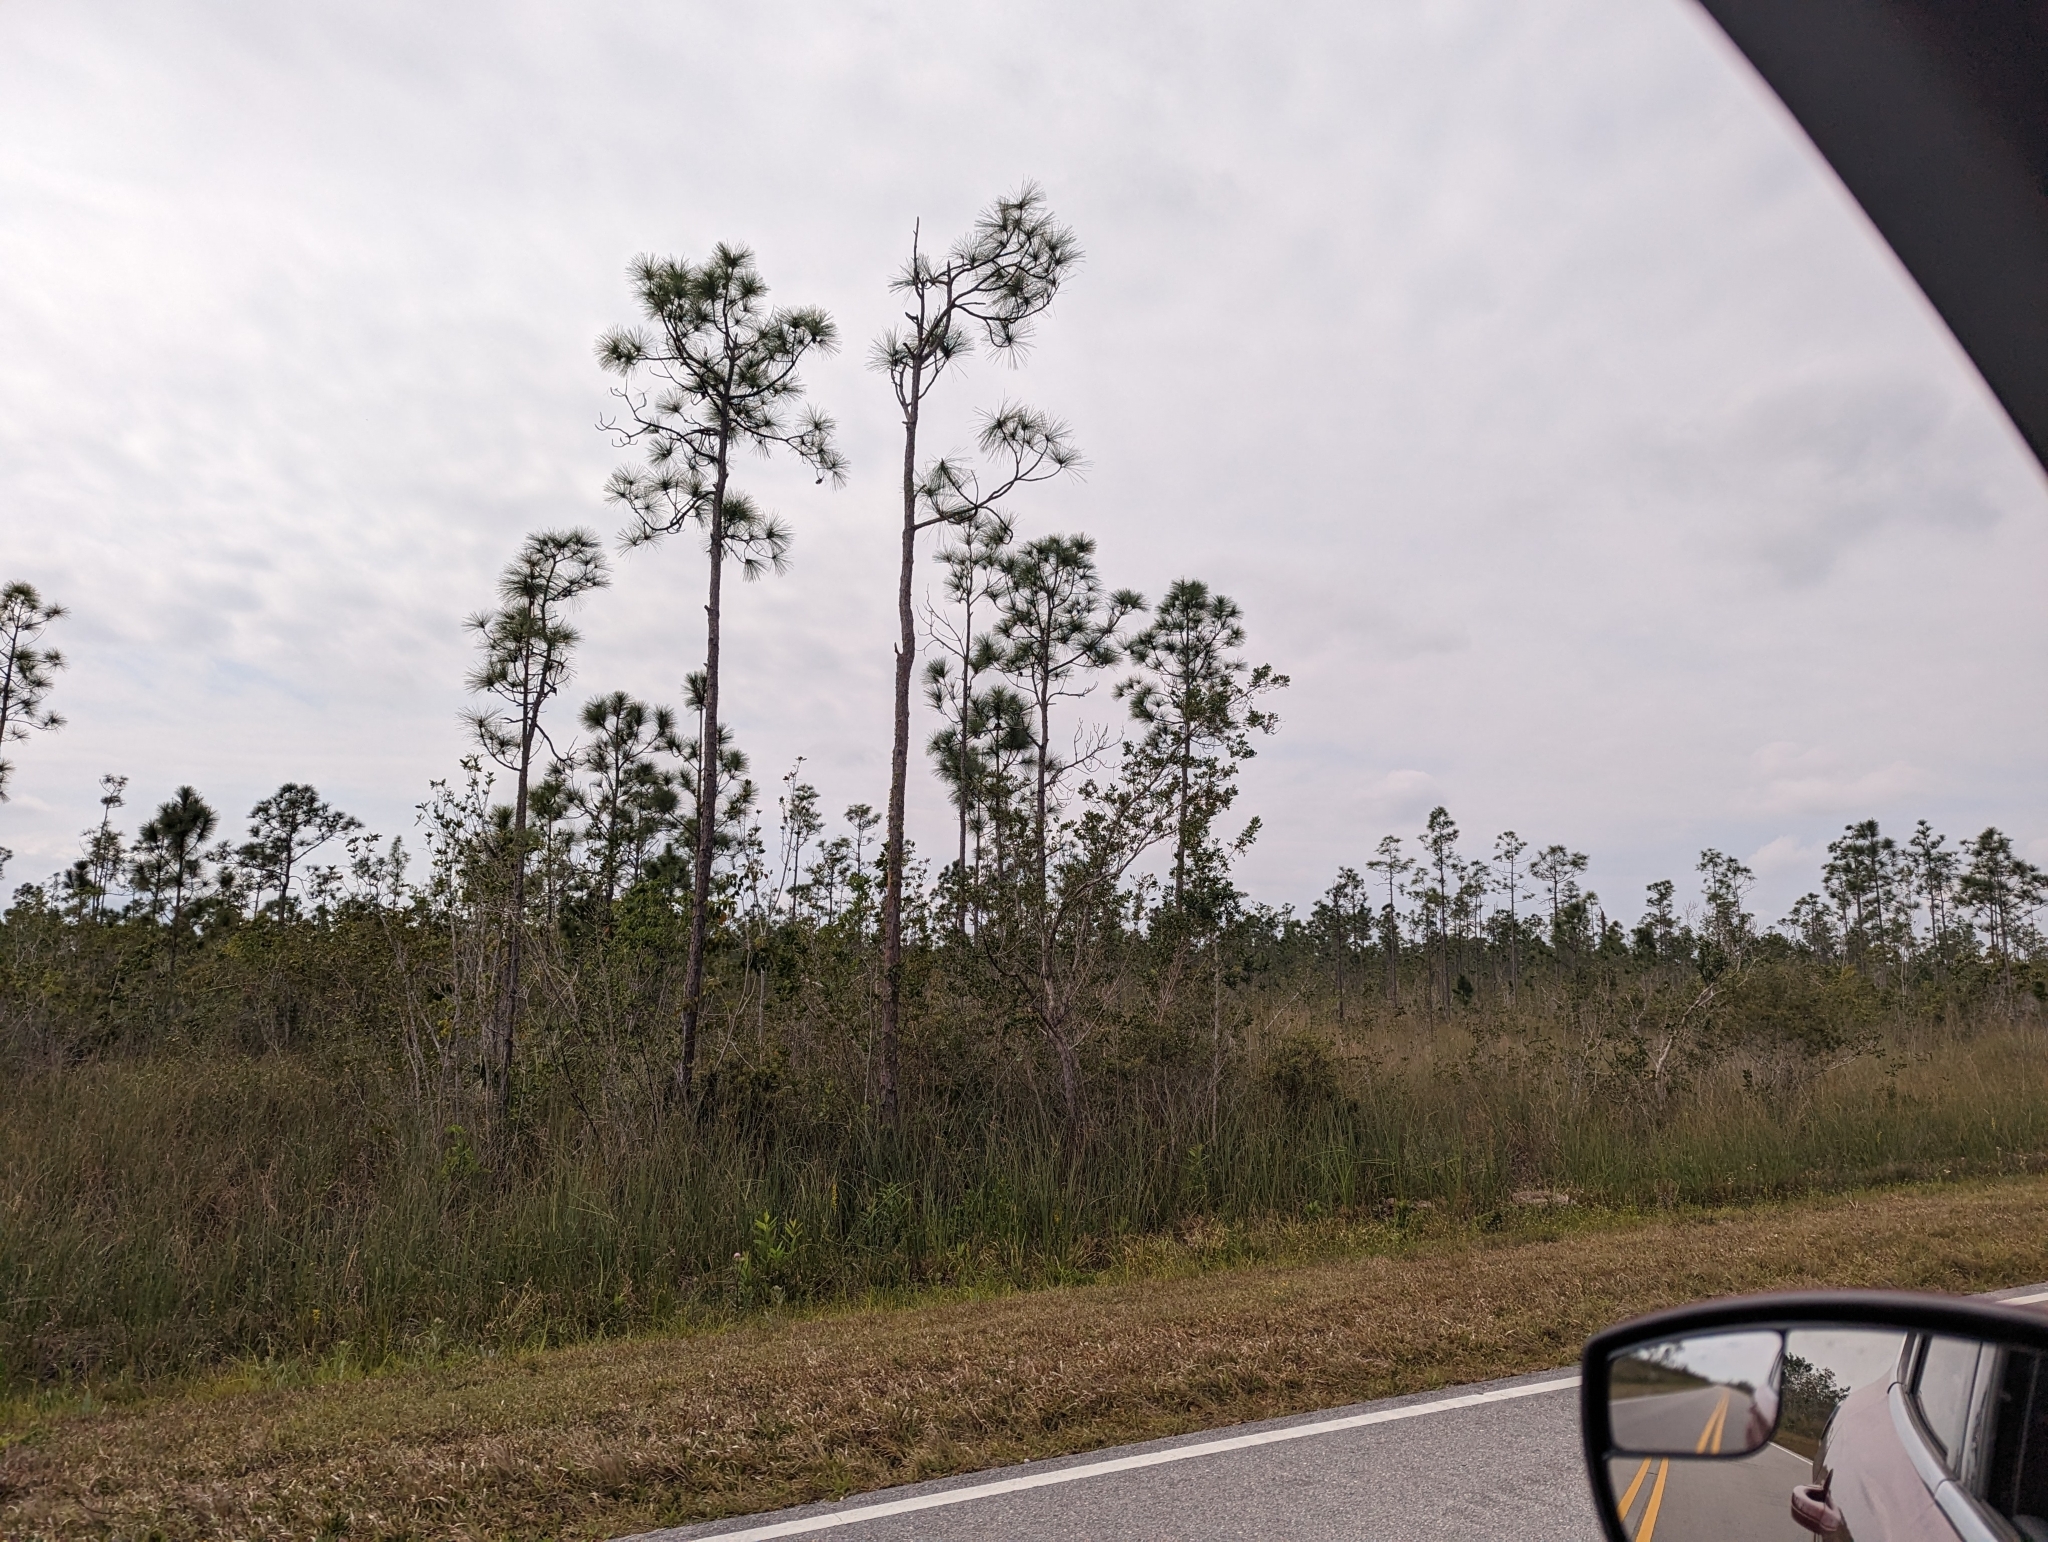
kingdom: Plantae
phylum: Tracheophyta
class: Pinopsida
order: Pinales
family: Pinaceae
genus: Pinus
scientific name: Pinus elliottii
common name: Slash pine
